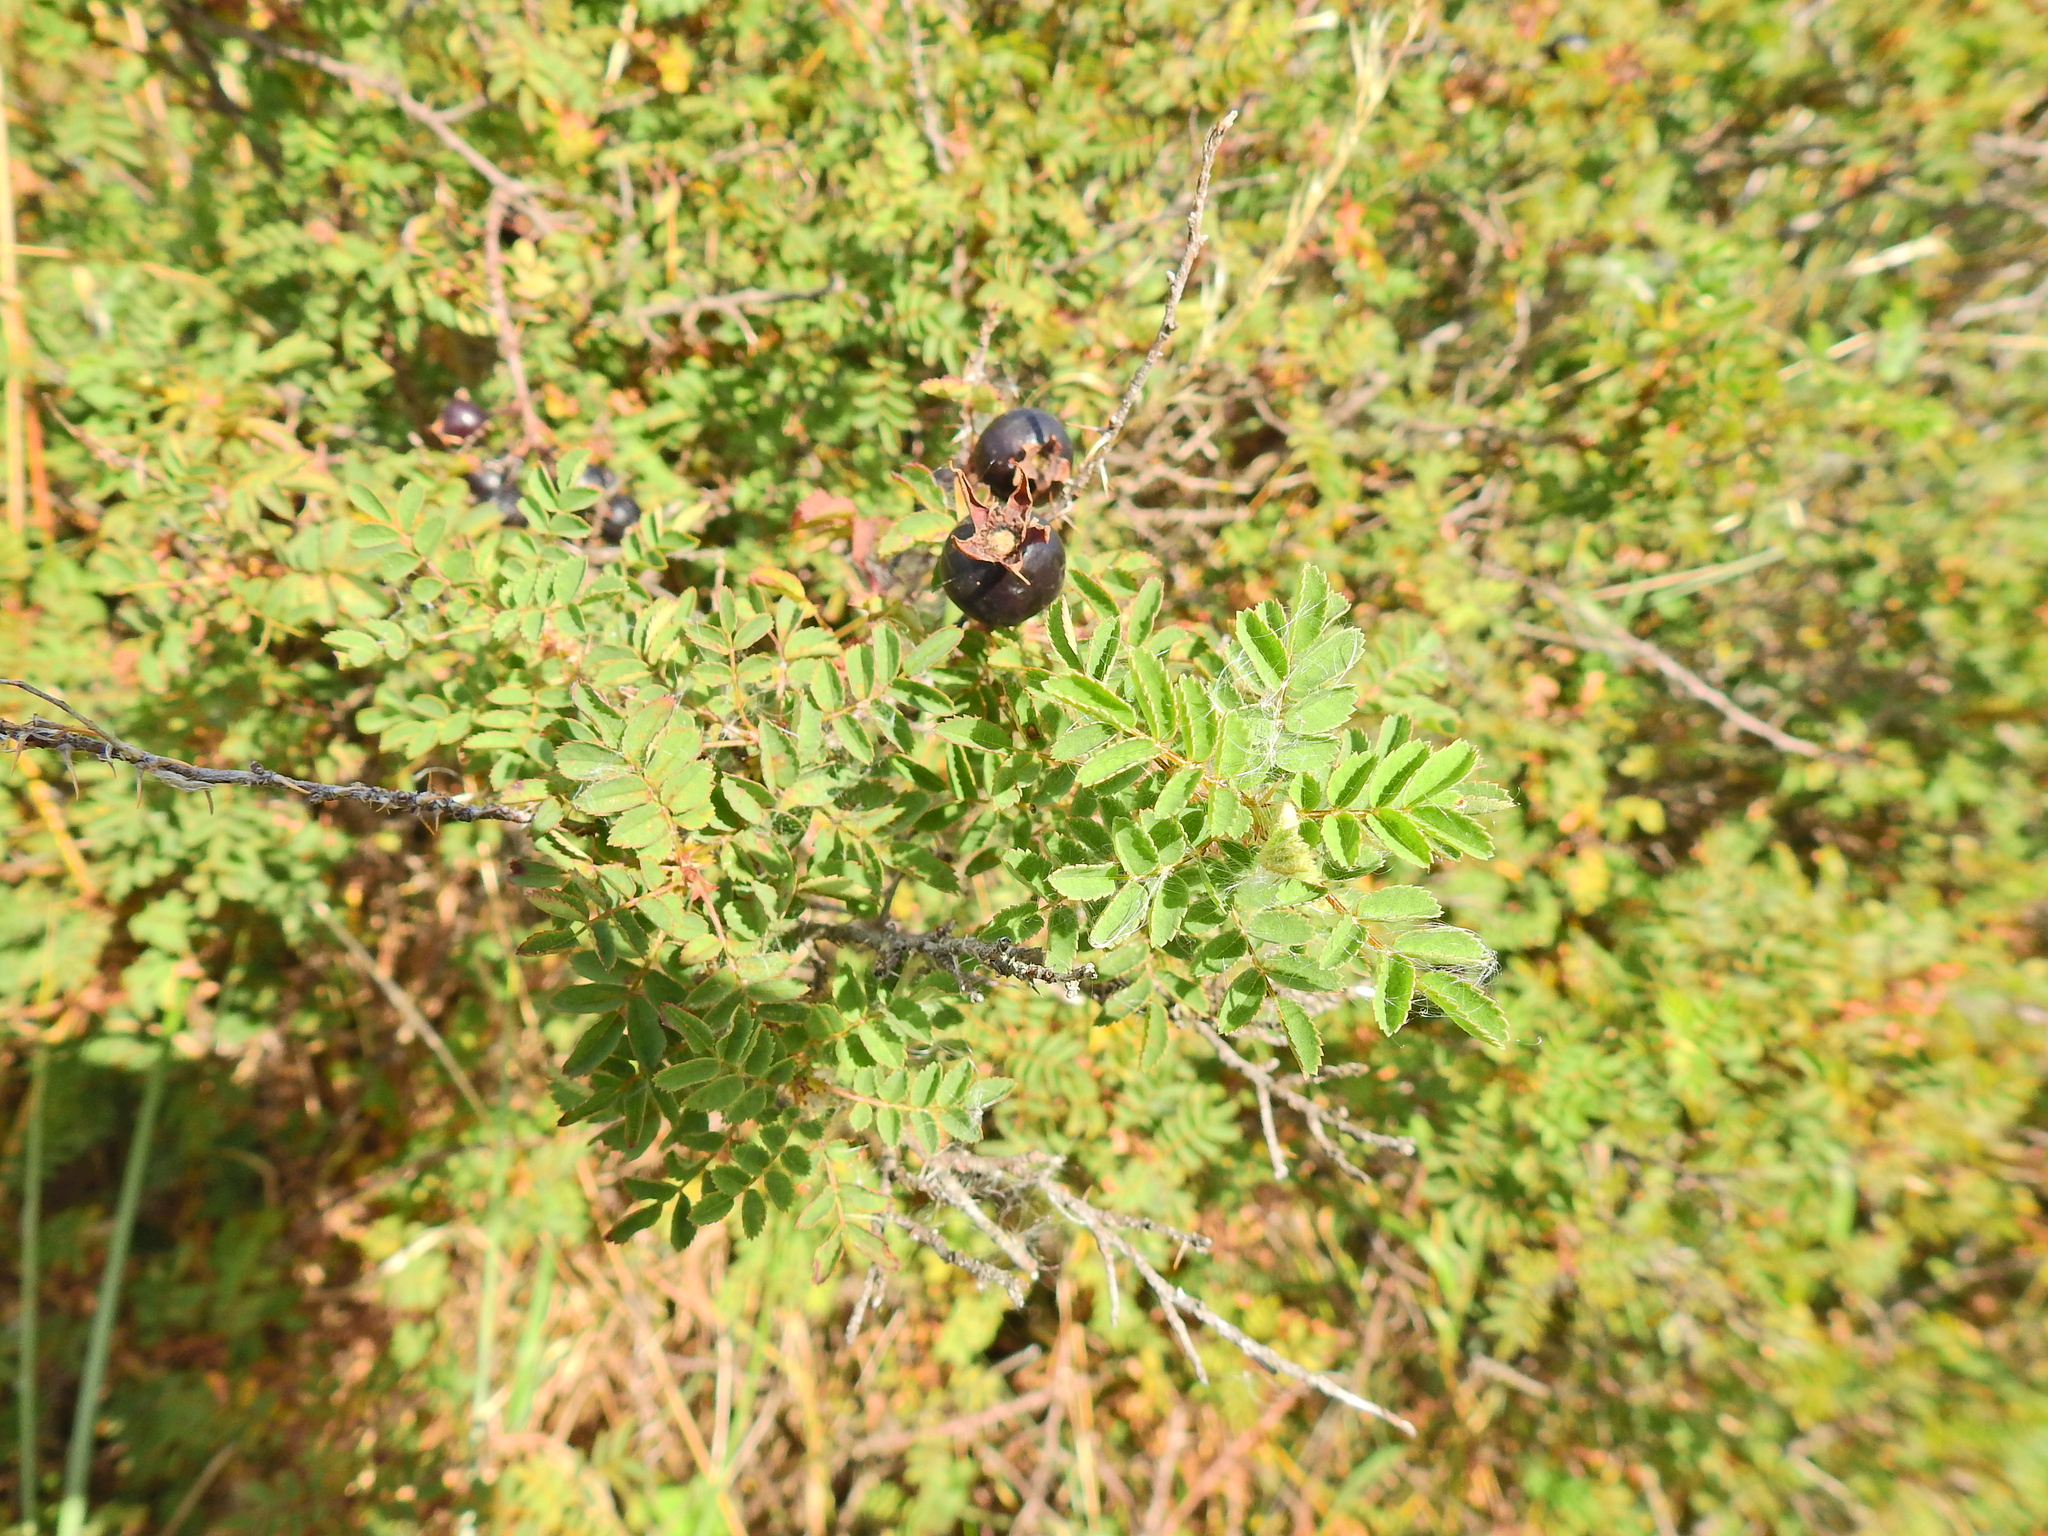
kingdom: Plantae
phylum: Tracheophyta
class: Magnoliopsida
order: Rosales
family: Rosaceae
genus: Rosa
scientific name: Rosa spinosissima
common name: Burnet rose
